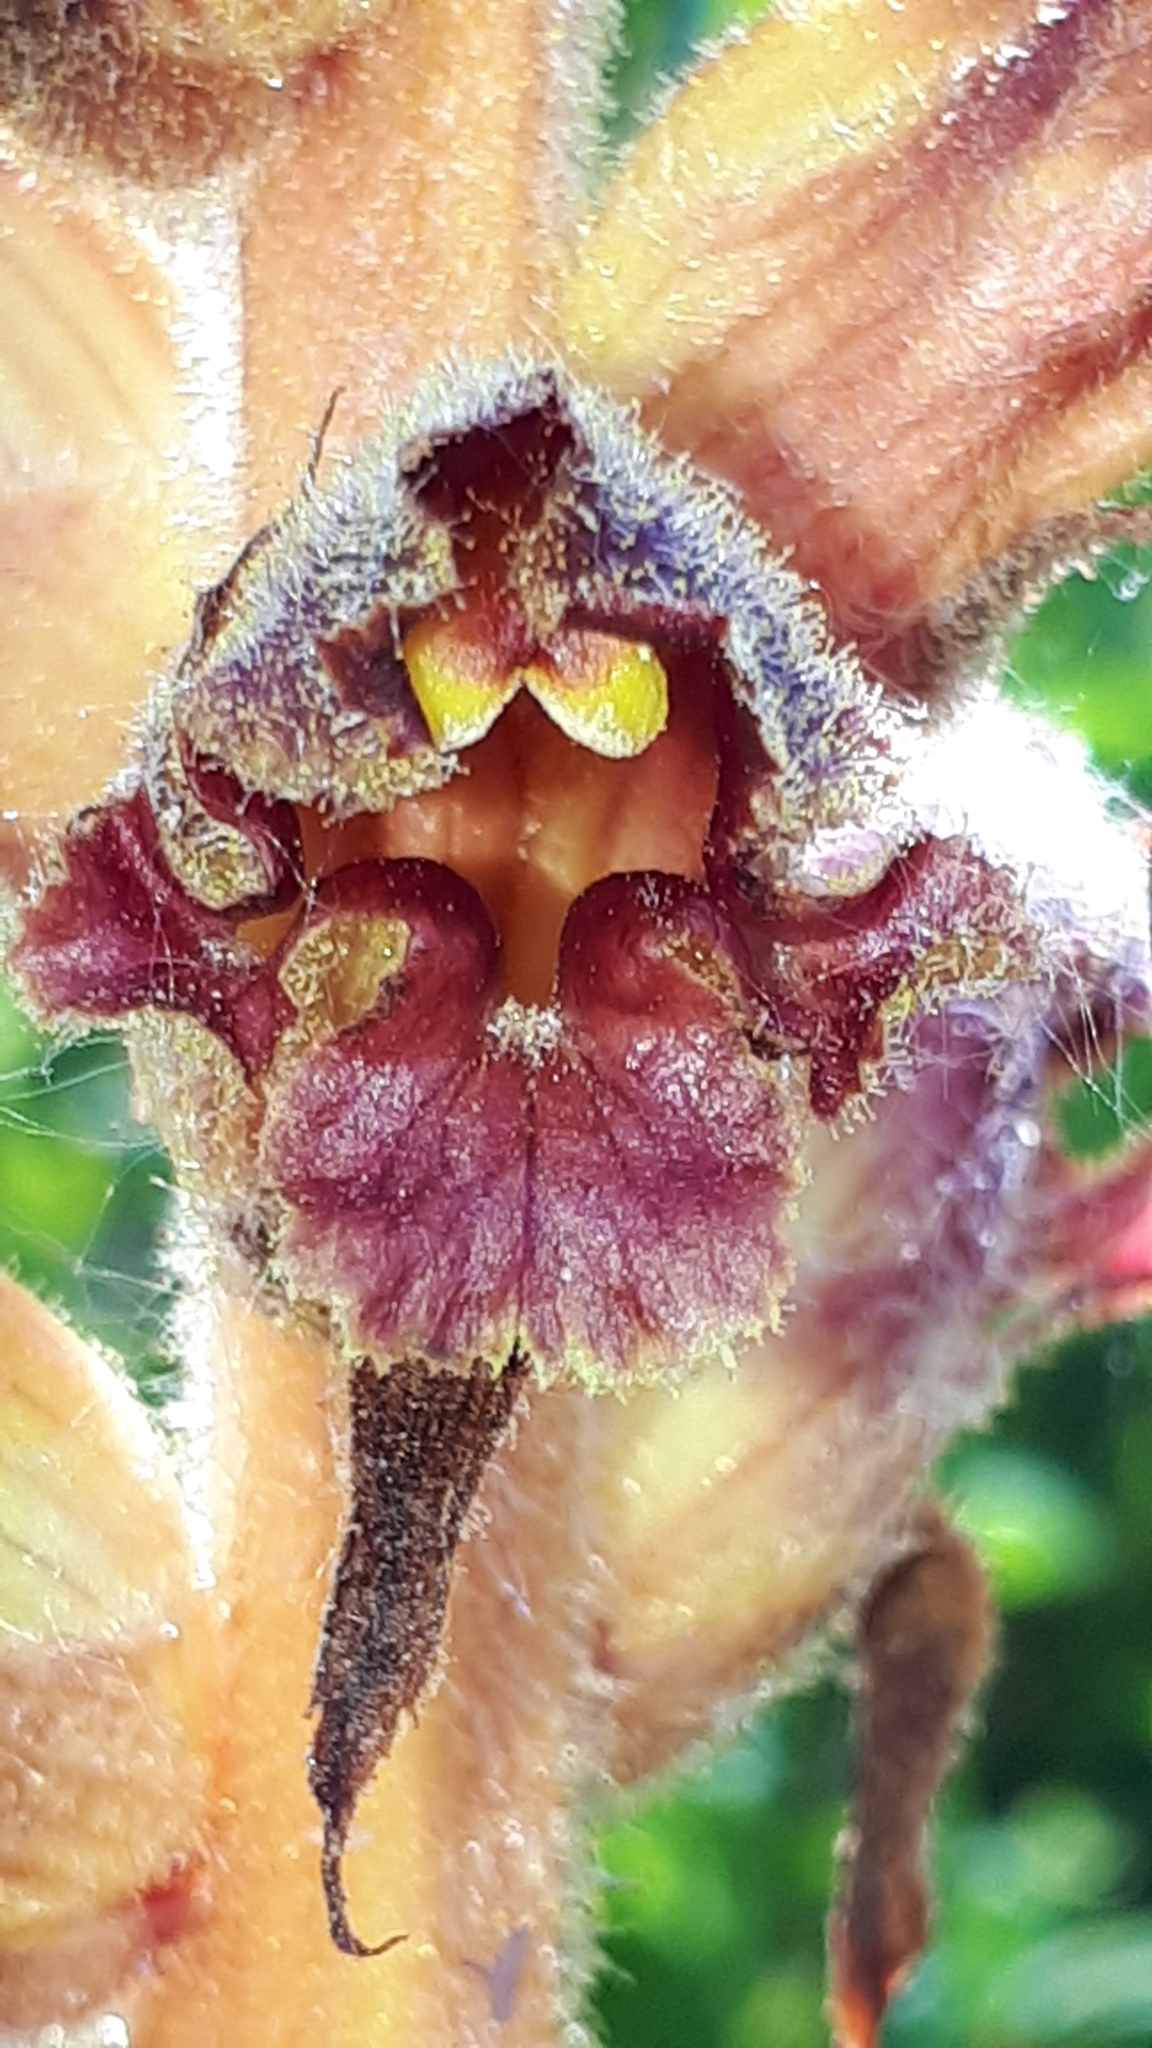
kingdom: Plantae
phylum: Tracheophyta
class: Magnoliopsida
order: Lamiales
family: Orobanchaceae
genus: Orobanche
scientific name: Orobanche gracilis
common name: Slender broomrape
